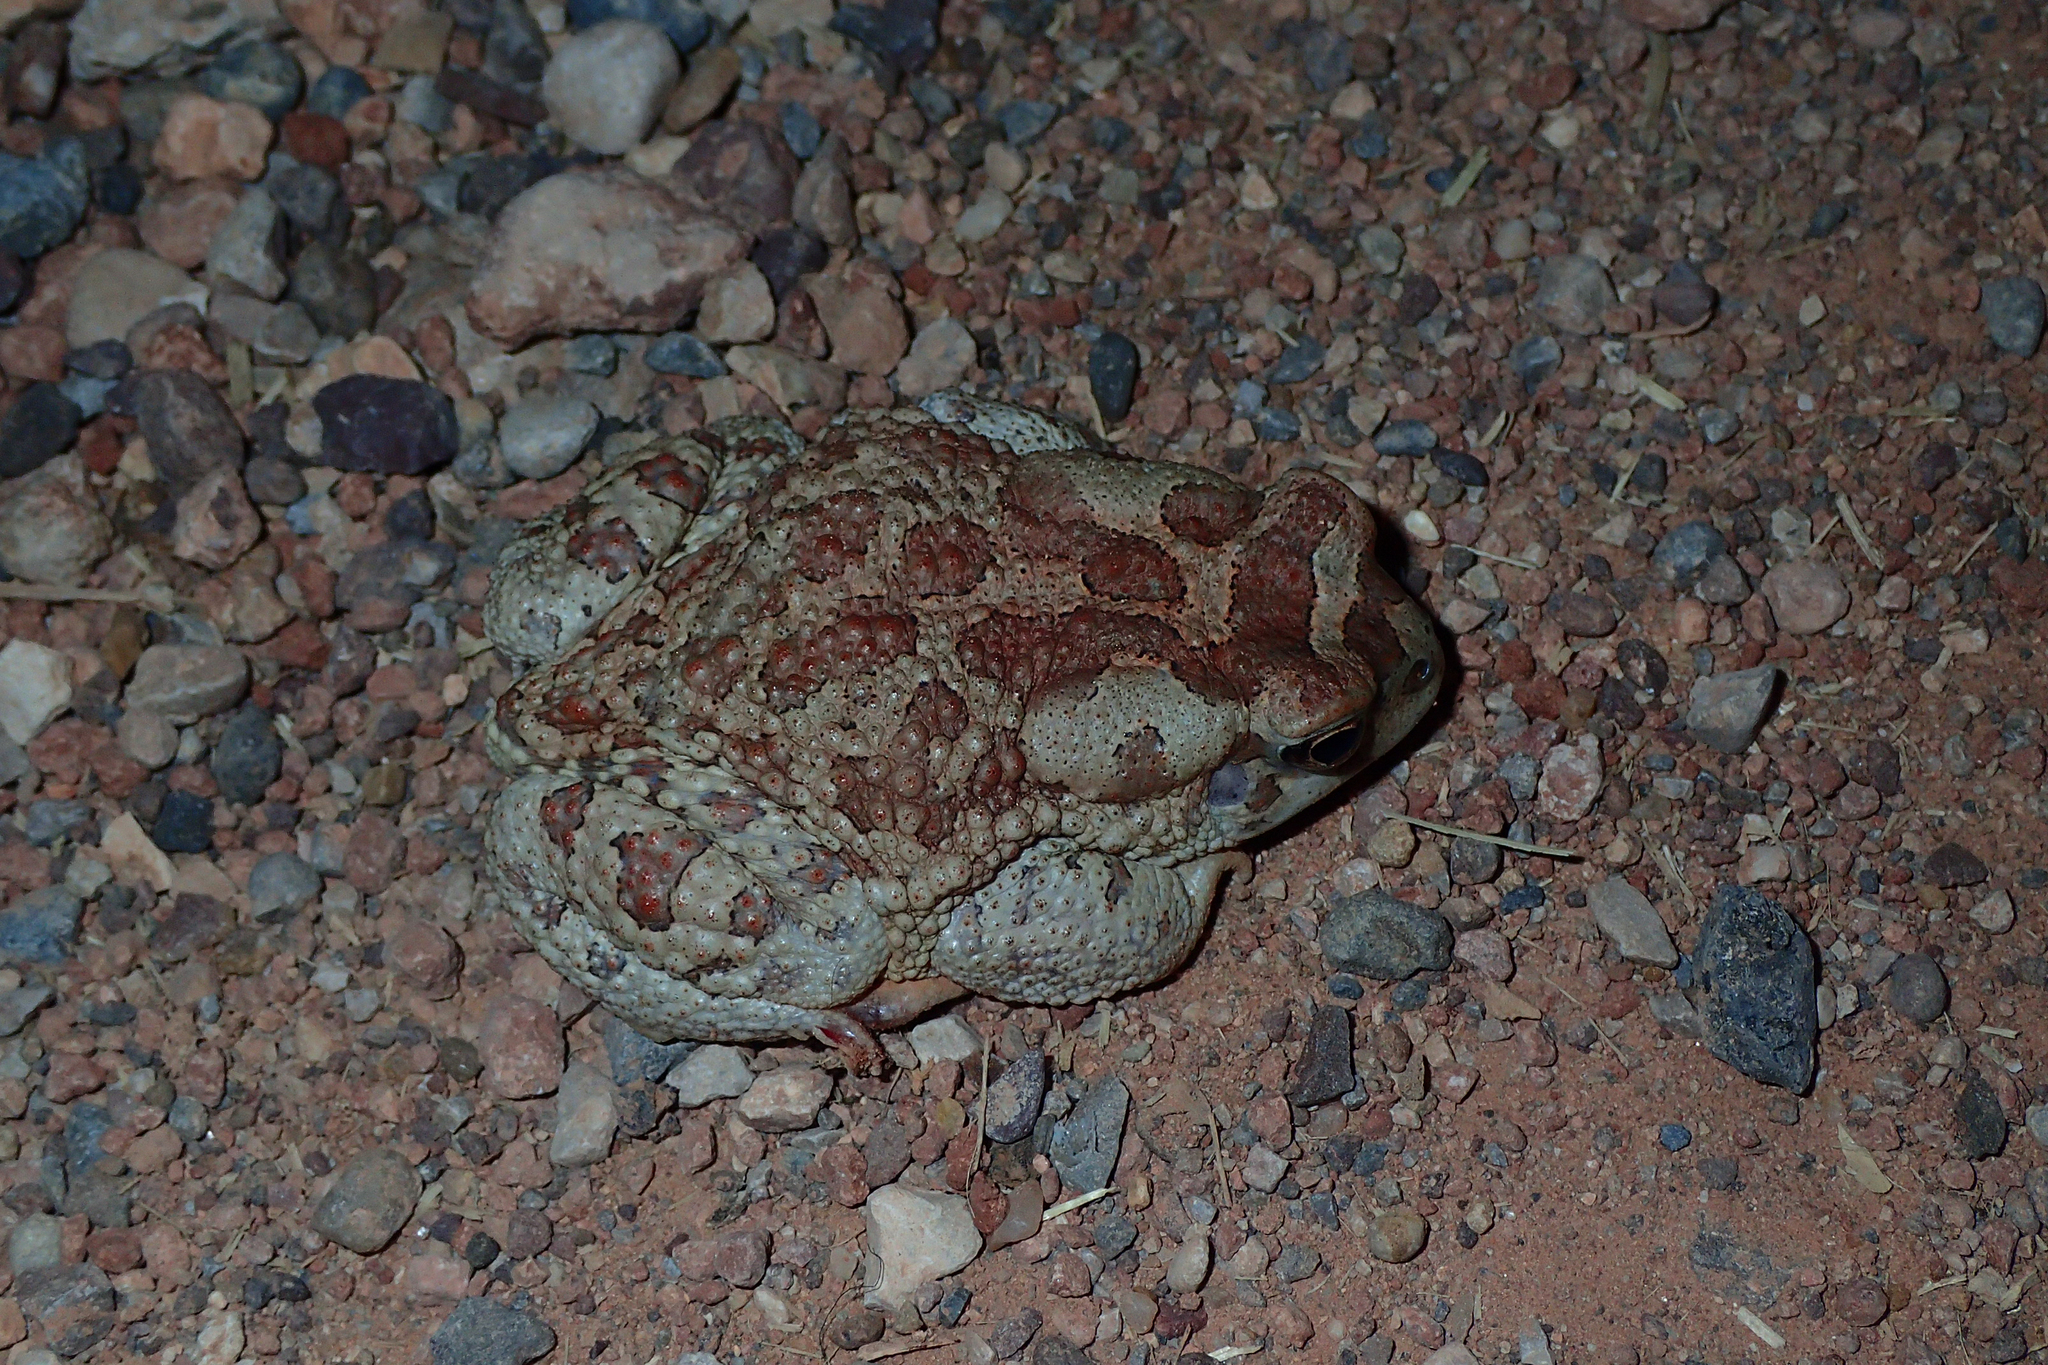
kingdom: Animalia
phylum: Chordata
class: Amphibia
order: Anura
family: Bufonidae
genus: Sclerophrys
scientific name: Sclerophrys mauritanica
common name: Berber toad
